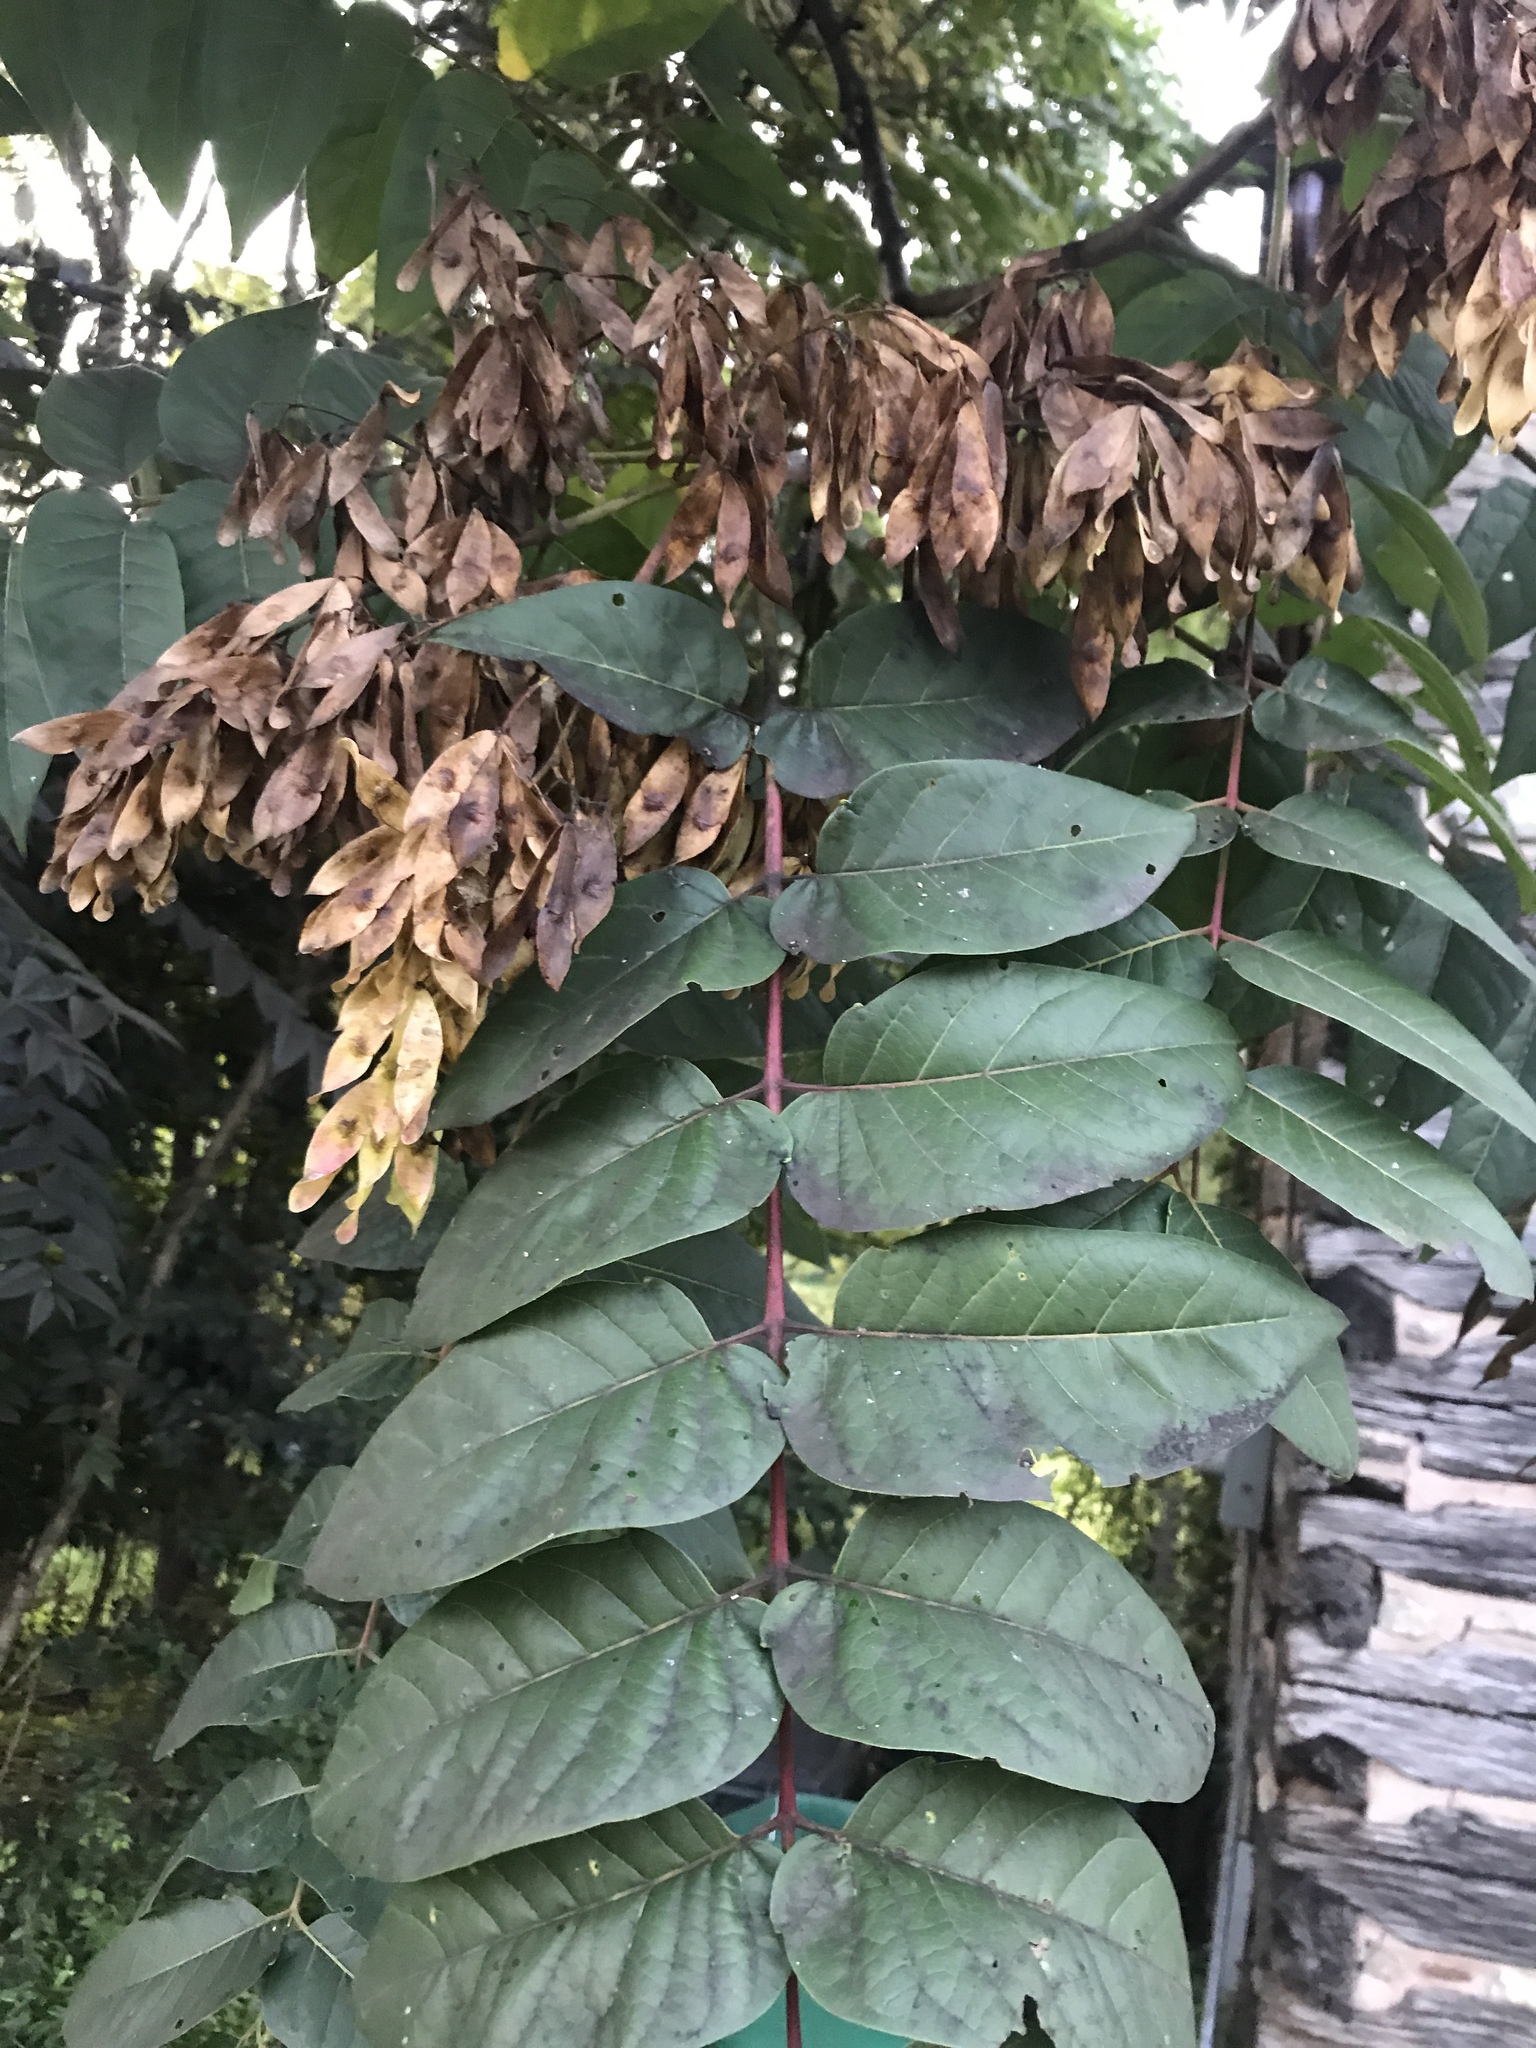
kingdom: Plantae
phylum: Tracheophyta
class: Magnoliopsida
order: Sapindales
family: Simaroubaceae
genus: Ailanthus
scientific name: Ailanthus altissima
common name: Tree-of-heaven
